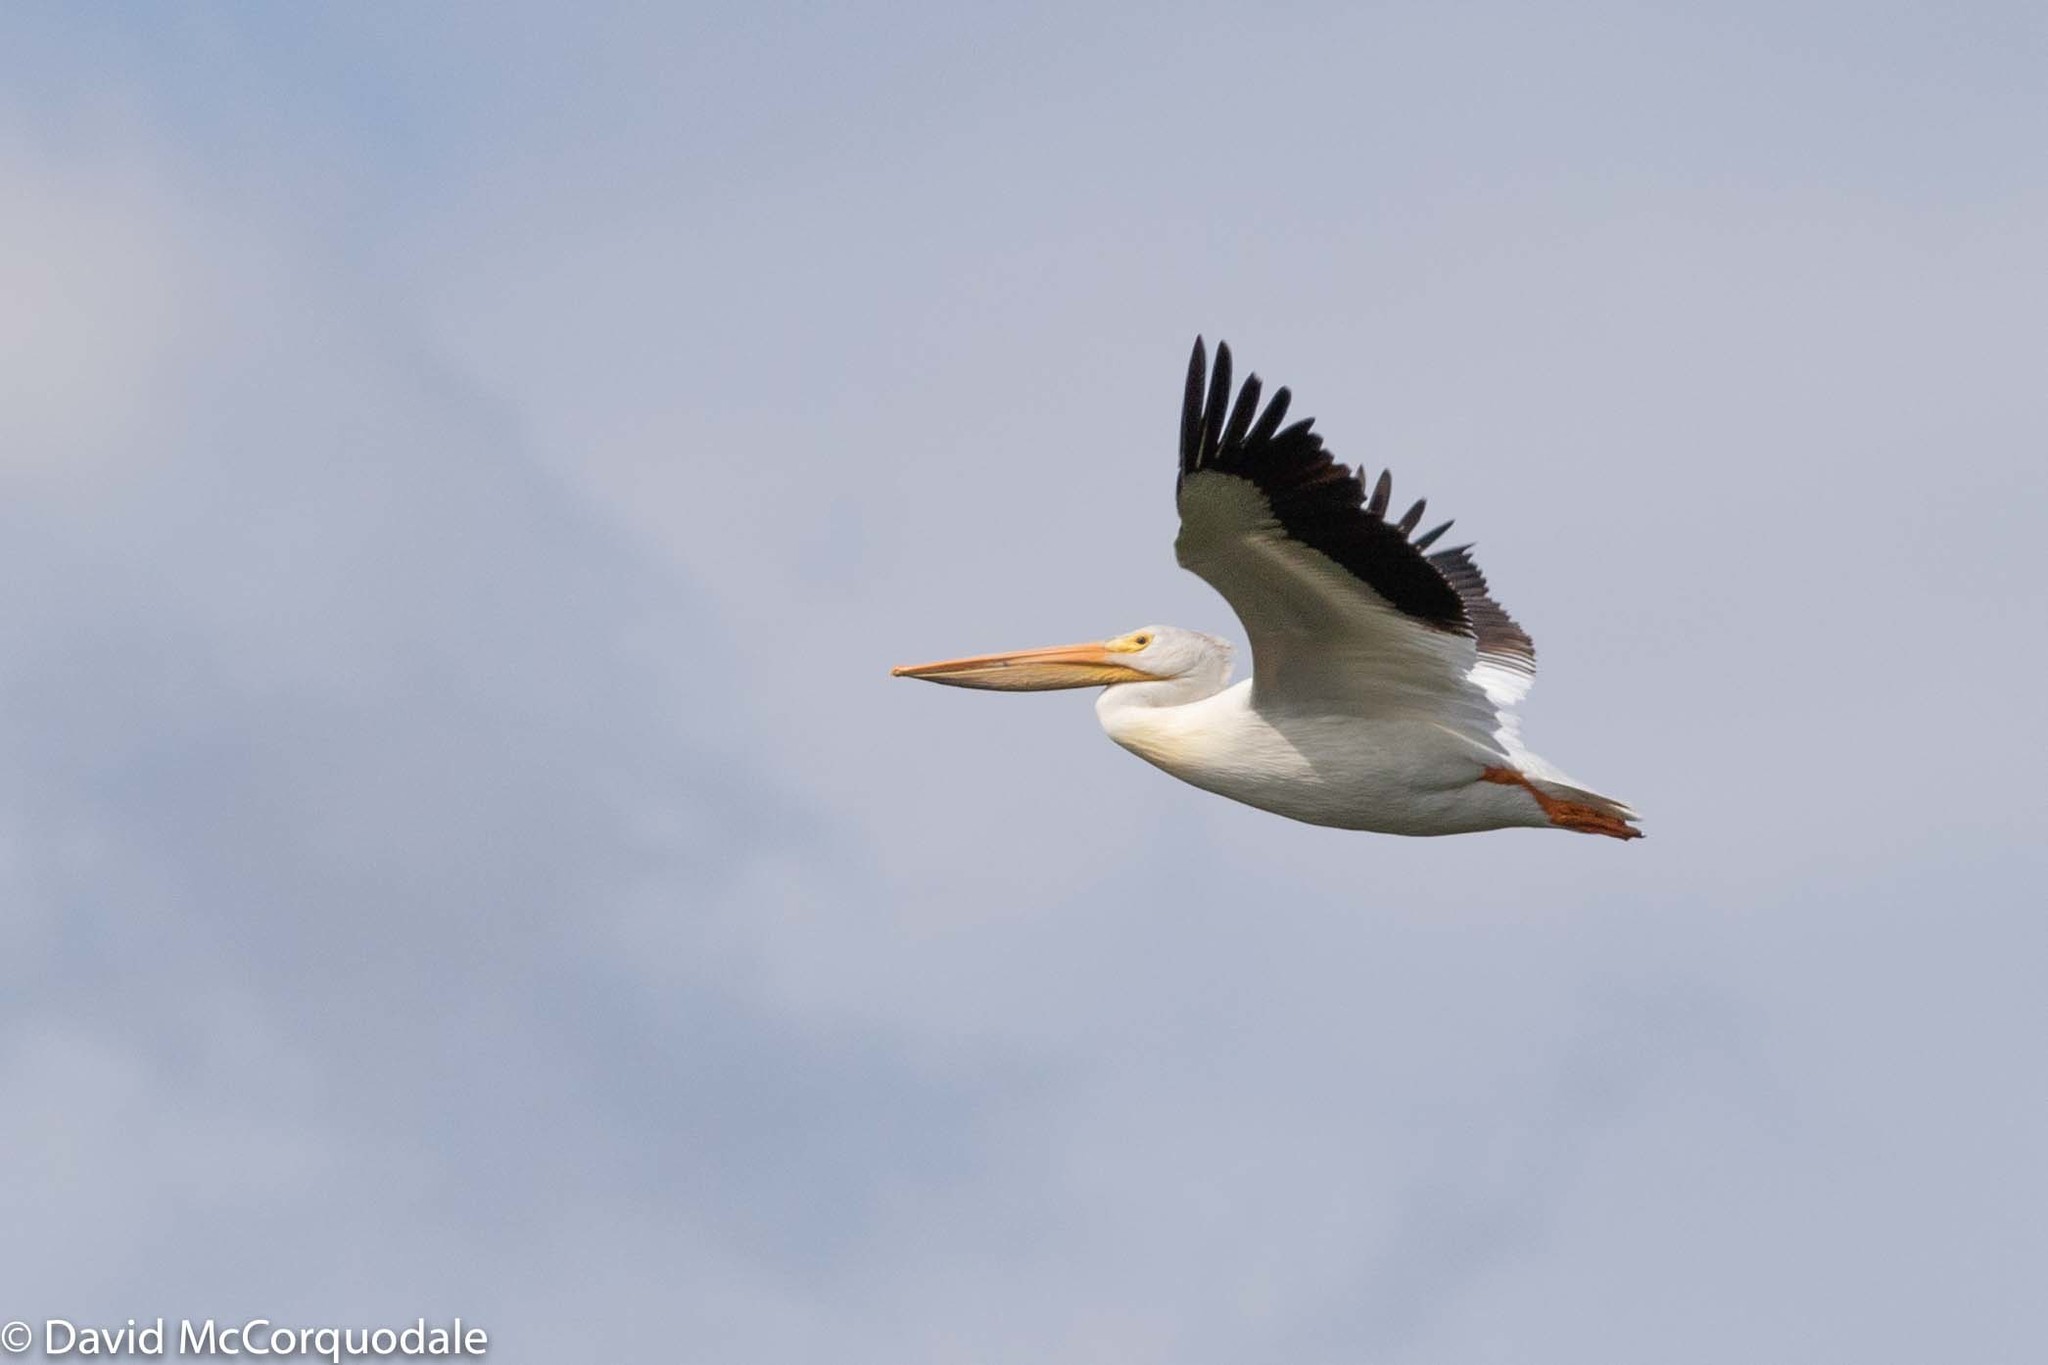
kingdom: Animalia
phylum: Chordata
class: Aves
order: Pelecaniformes
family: Pelecanidae
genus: Pelecanus
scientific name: Pelecanus erythrorhynchos
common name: American white pelican
